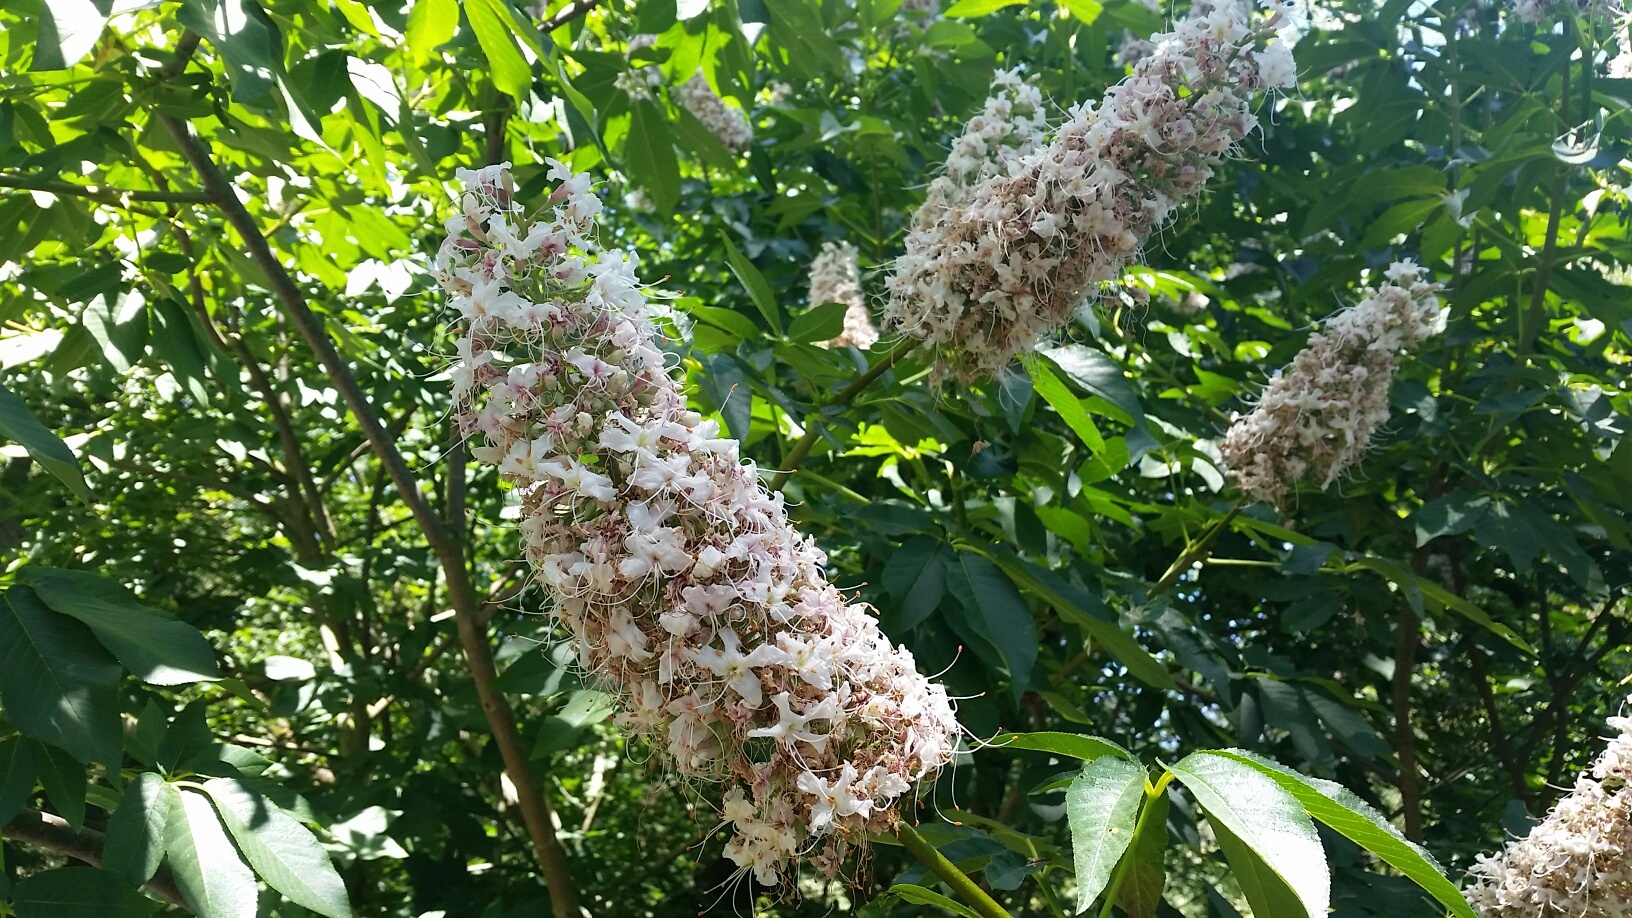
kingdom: Plantae
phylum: Tracheophyta
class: Magnoliopsida
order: Sapindales
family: Sapindaceae
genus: Aesculus
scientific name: Aesculus californica
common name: California buckeye
